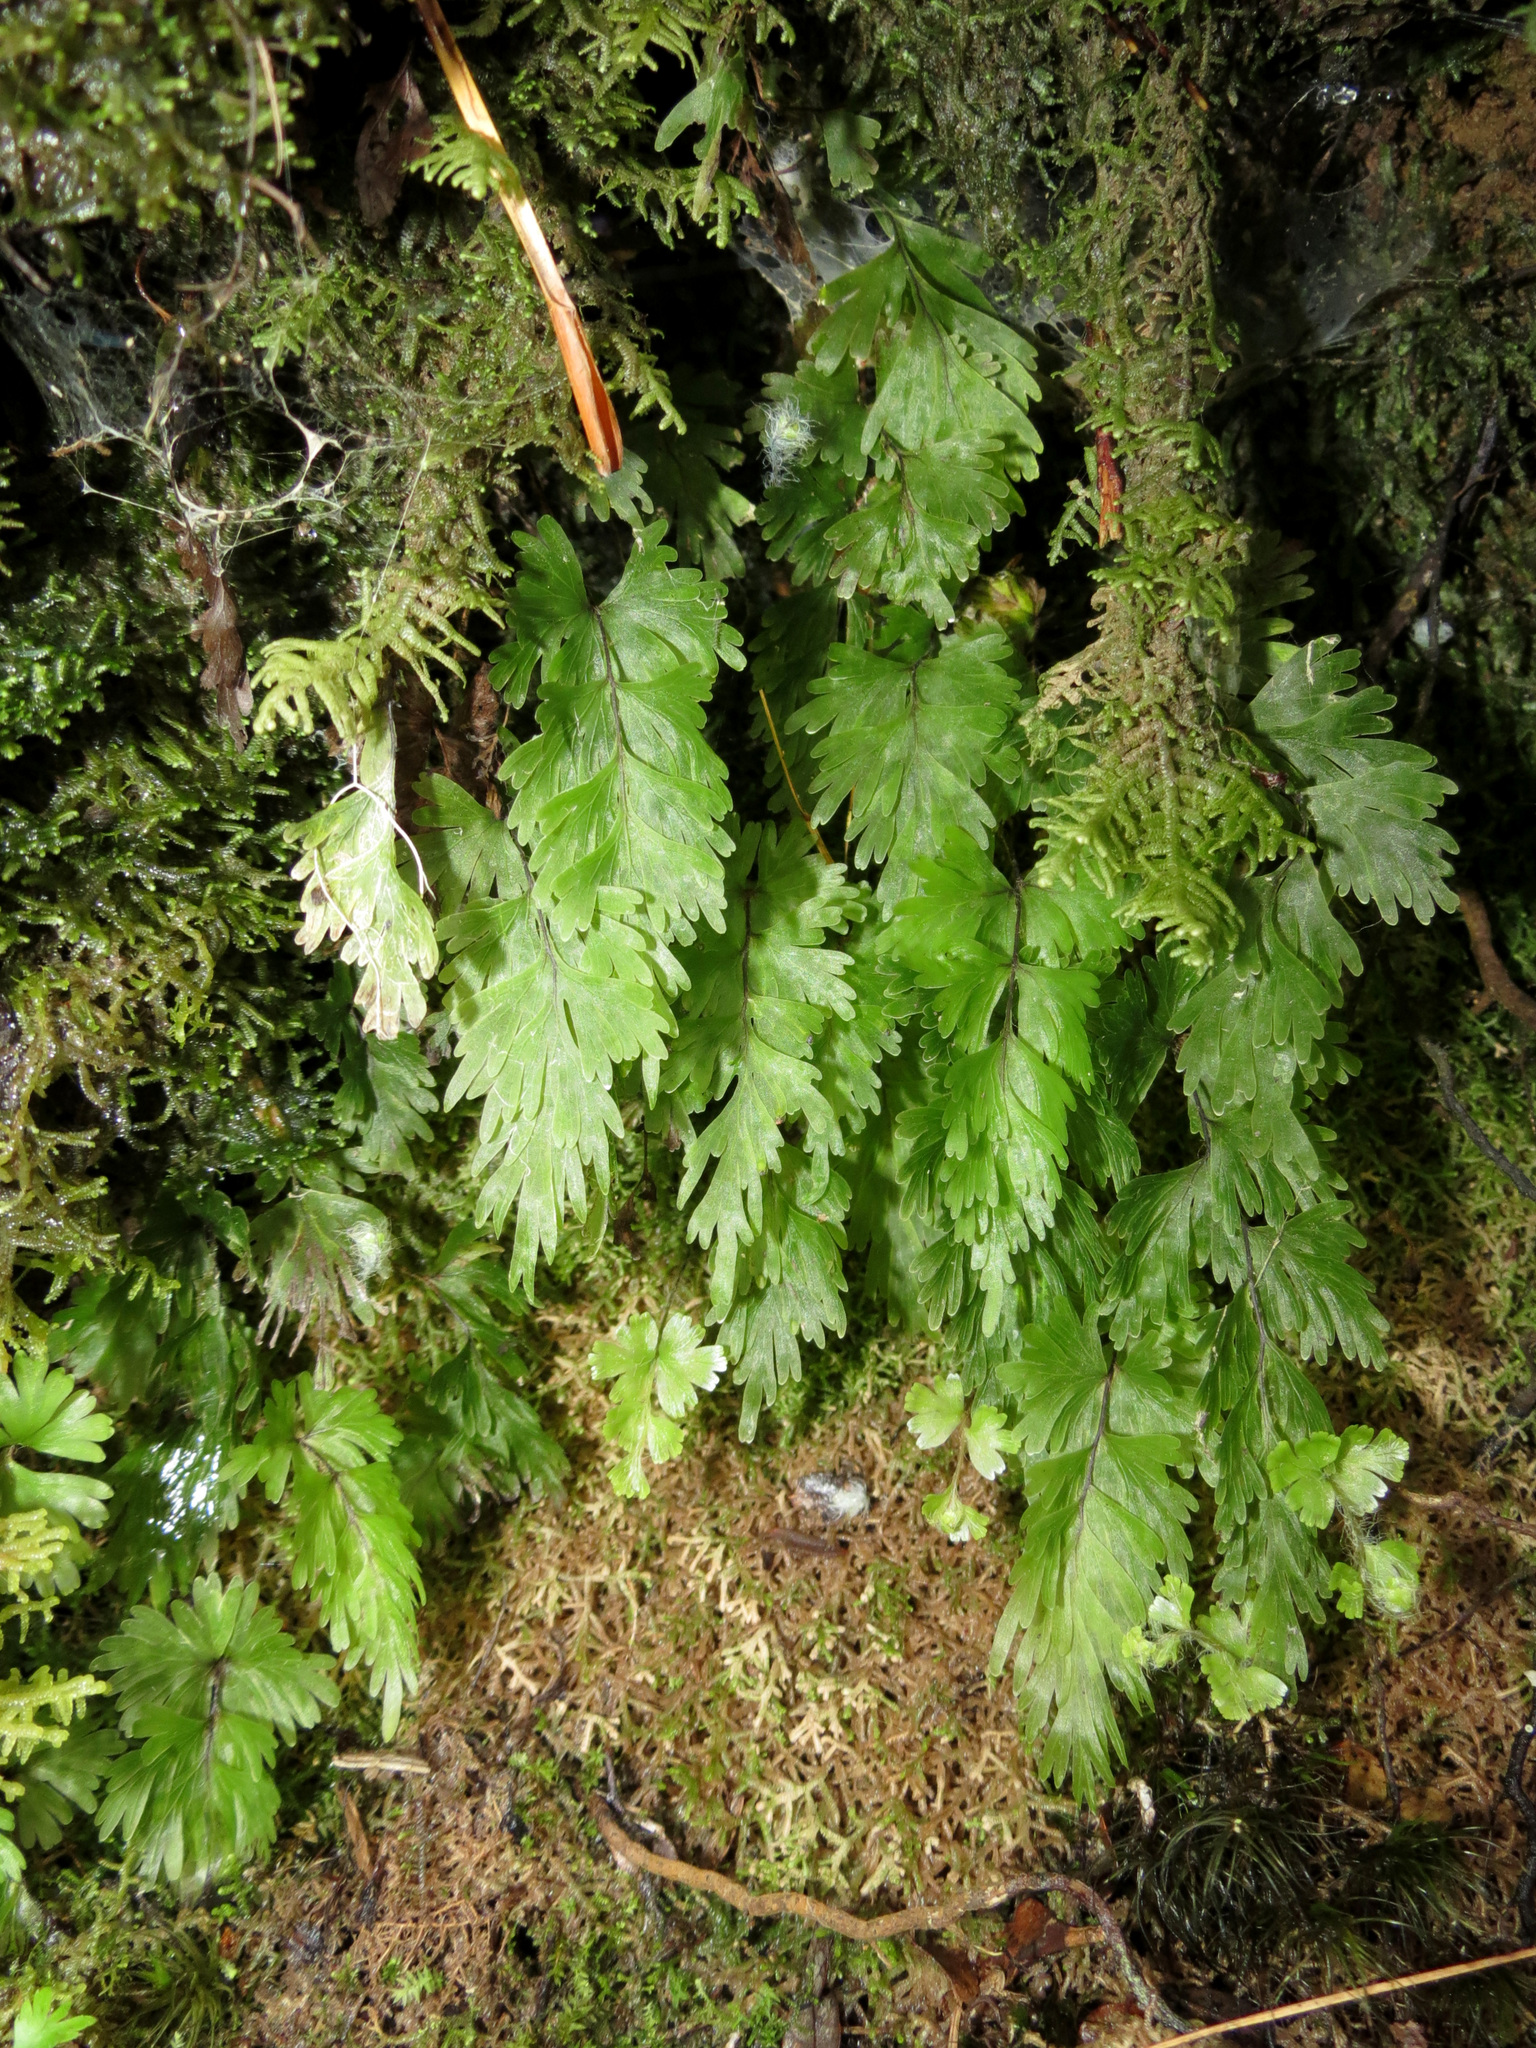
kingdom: Plantae
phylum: Tracheophyta
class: Polypodiopsida
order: Hymenophyllales
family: Hymenophyllaceae
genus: Hymenophyllum
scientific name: Hymenophyllum flabellatum
